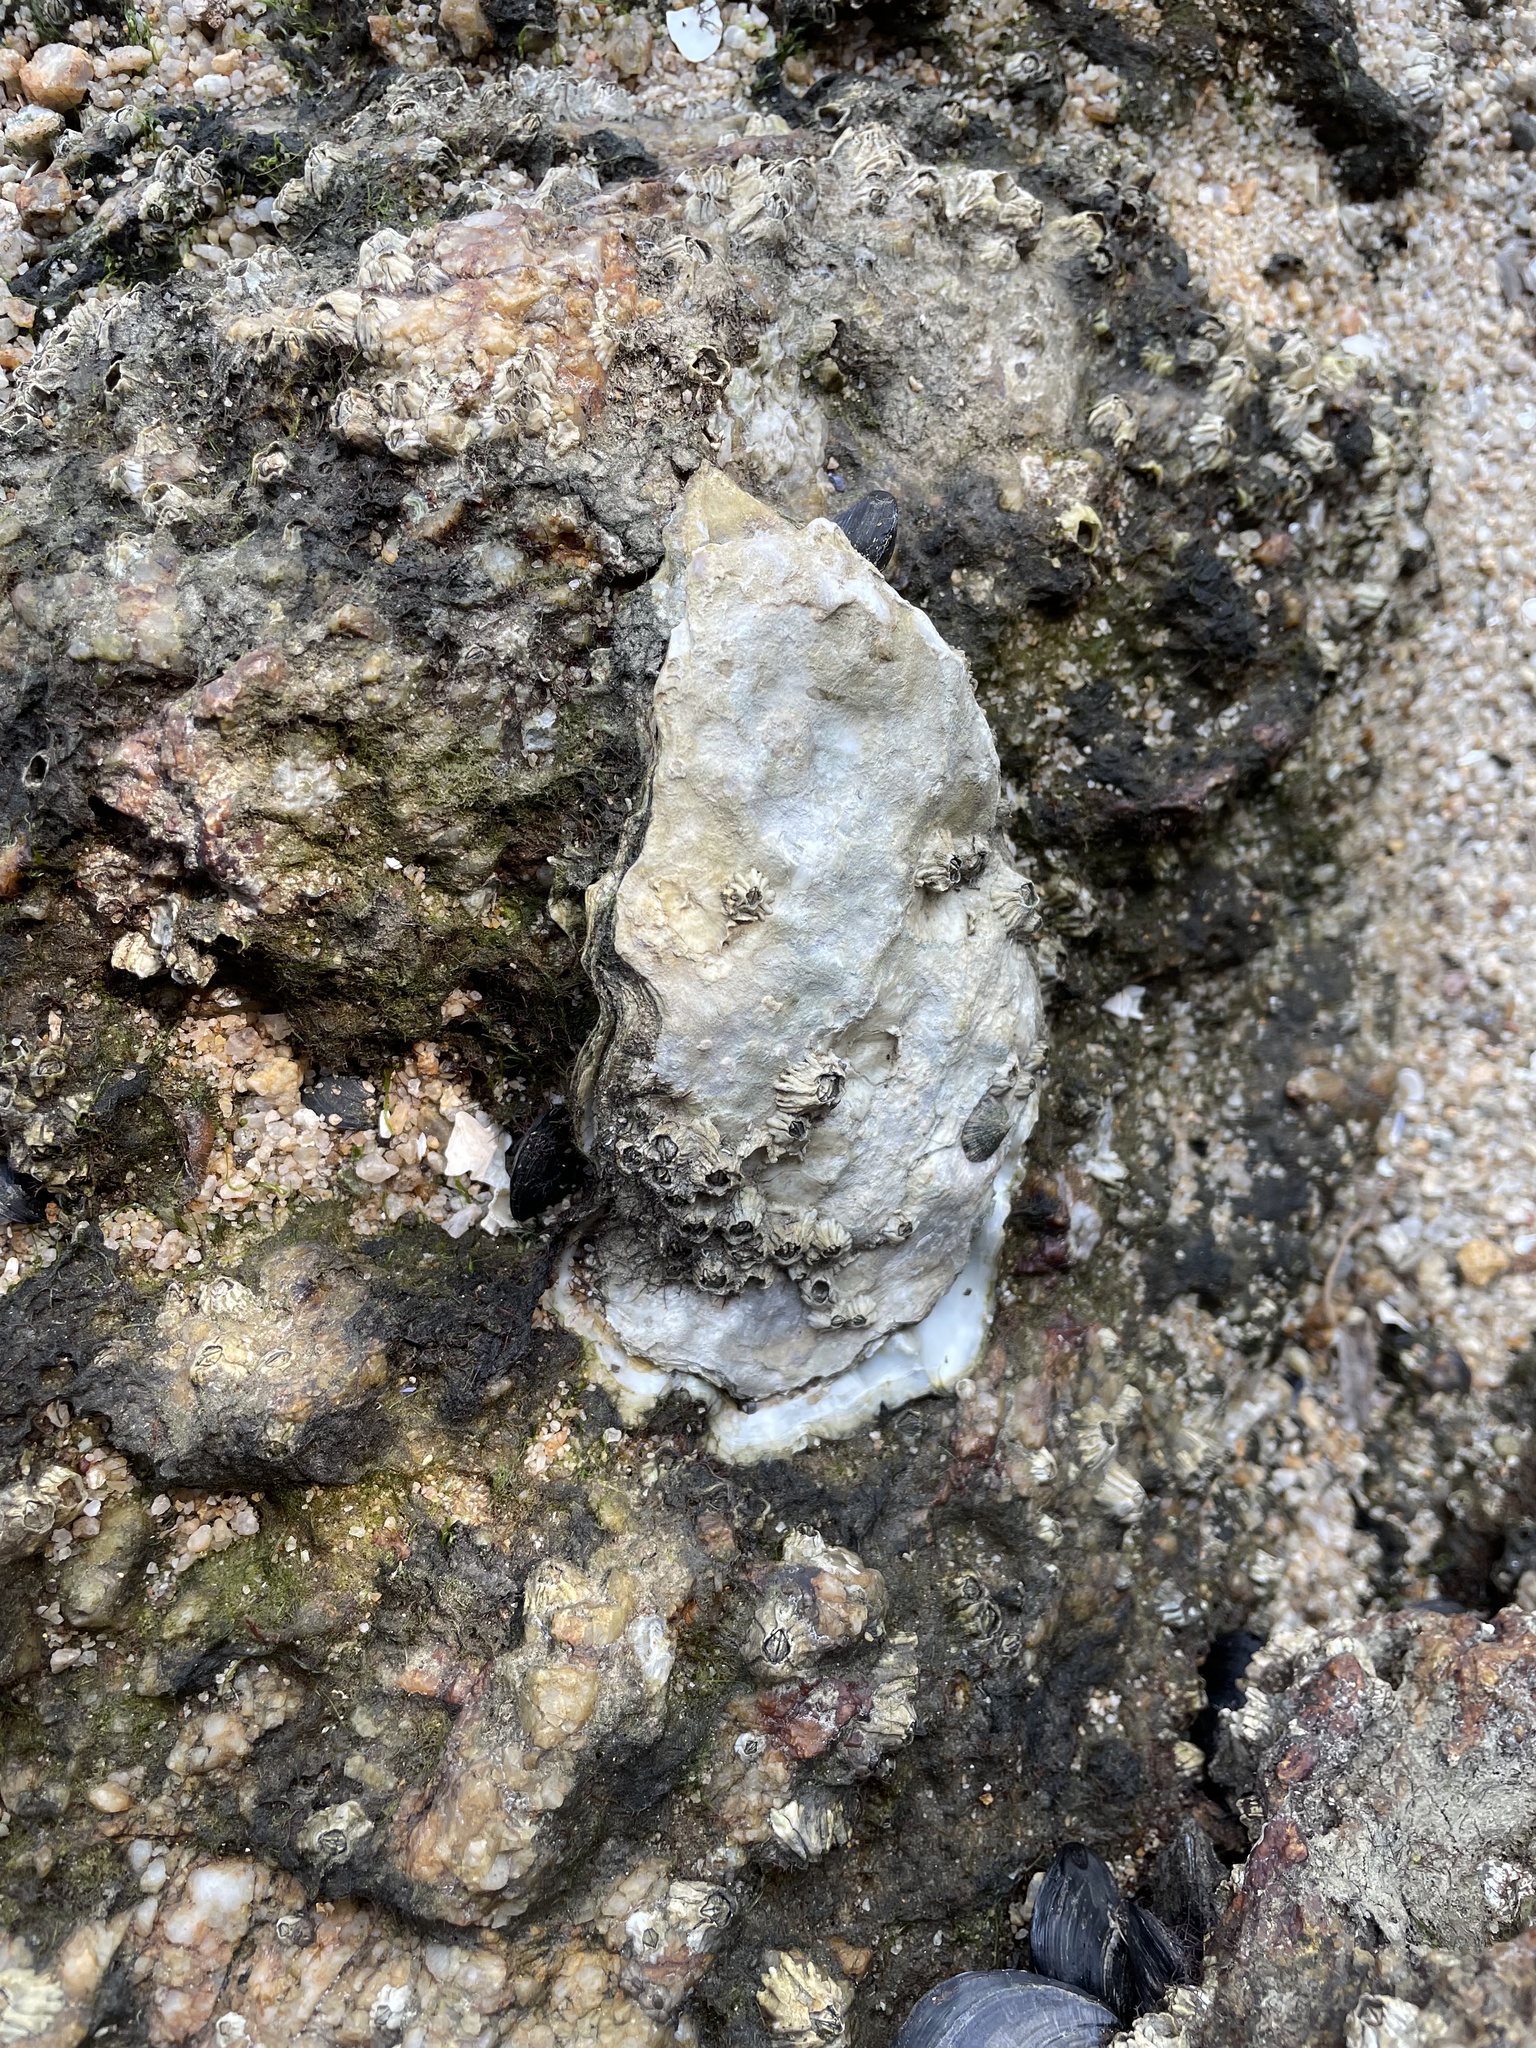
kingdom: Animalia
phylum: Mollusca
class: Bivalvia
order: Ostreida
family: Ostreidae
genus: Magallana
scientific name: Magallana gigas
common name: Pacific oyster
